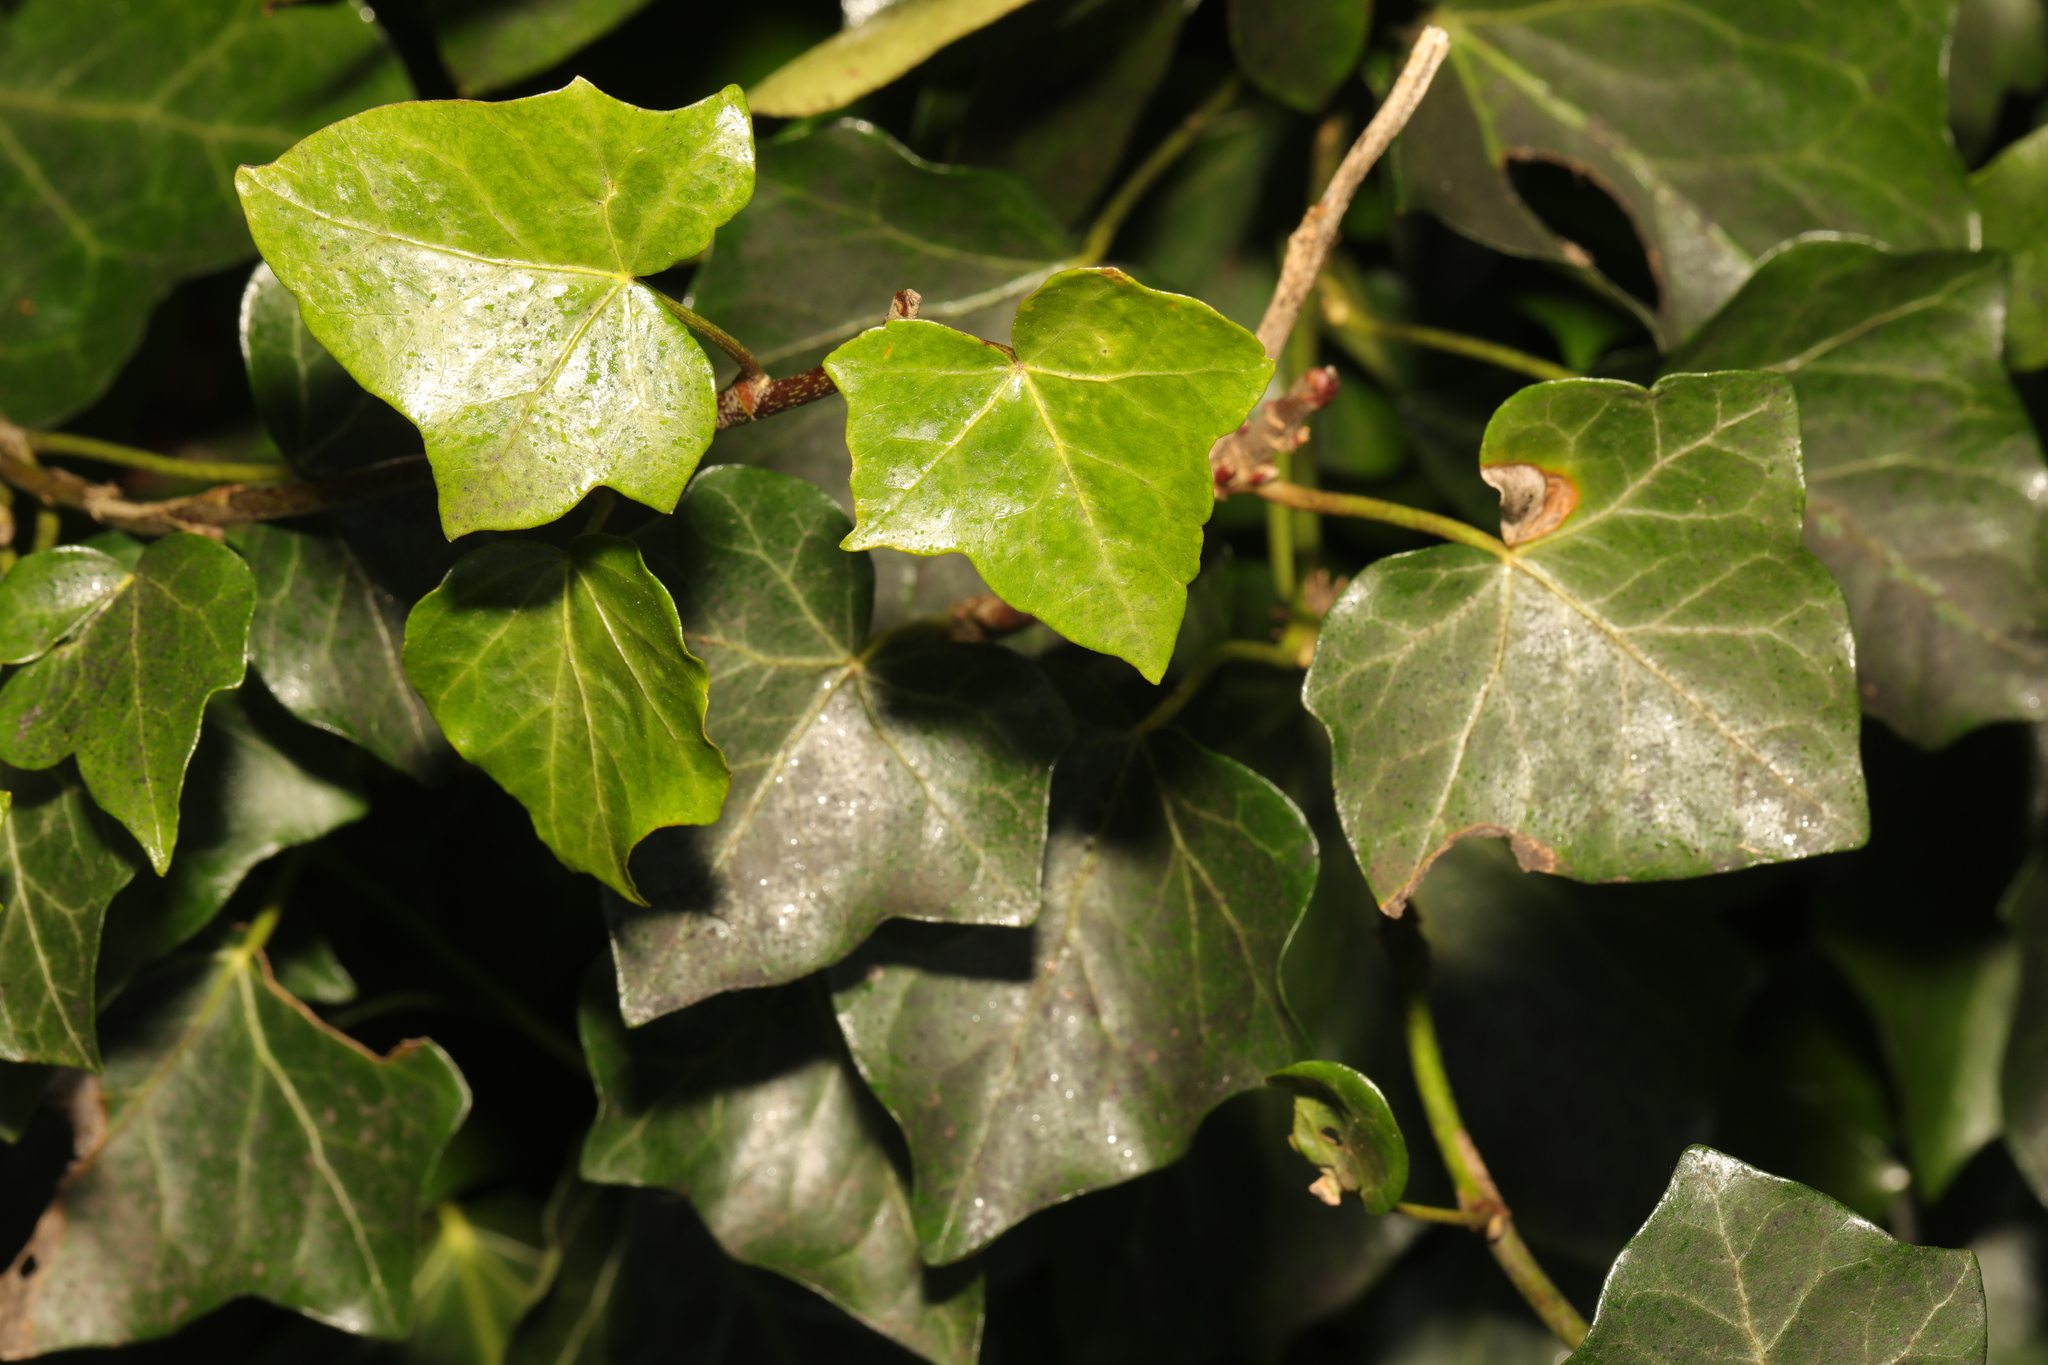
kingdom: Plantae
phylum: Tracheophyta
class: Magnoliopsida
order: Apiales
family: Araliaceae
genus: Hedera
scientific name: Hedera helix
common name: Ivy
